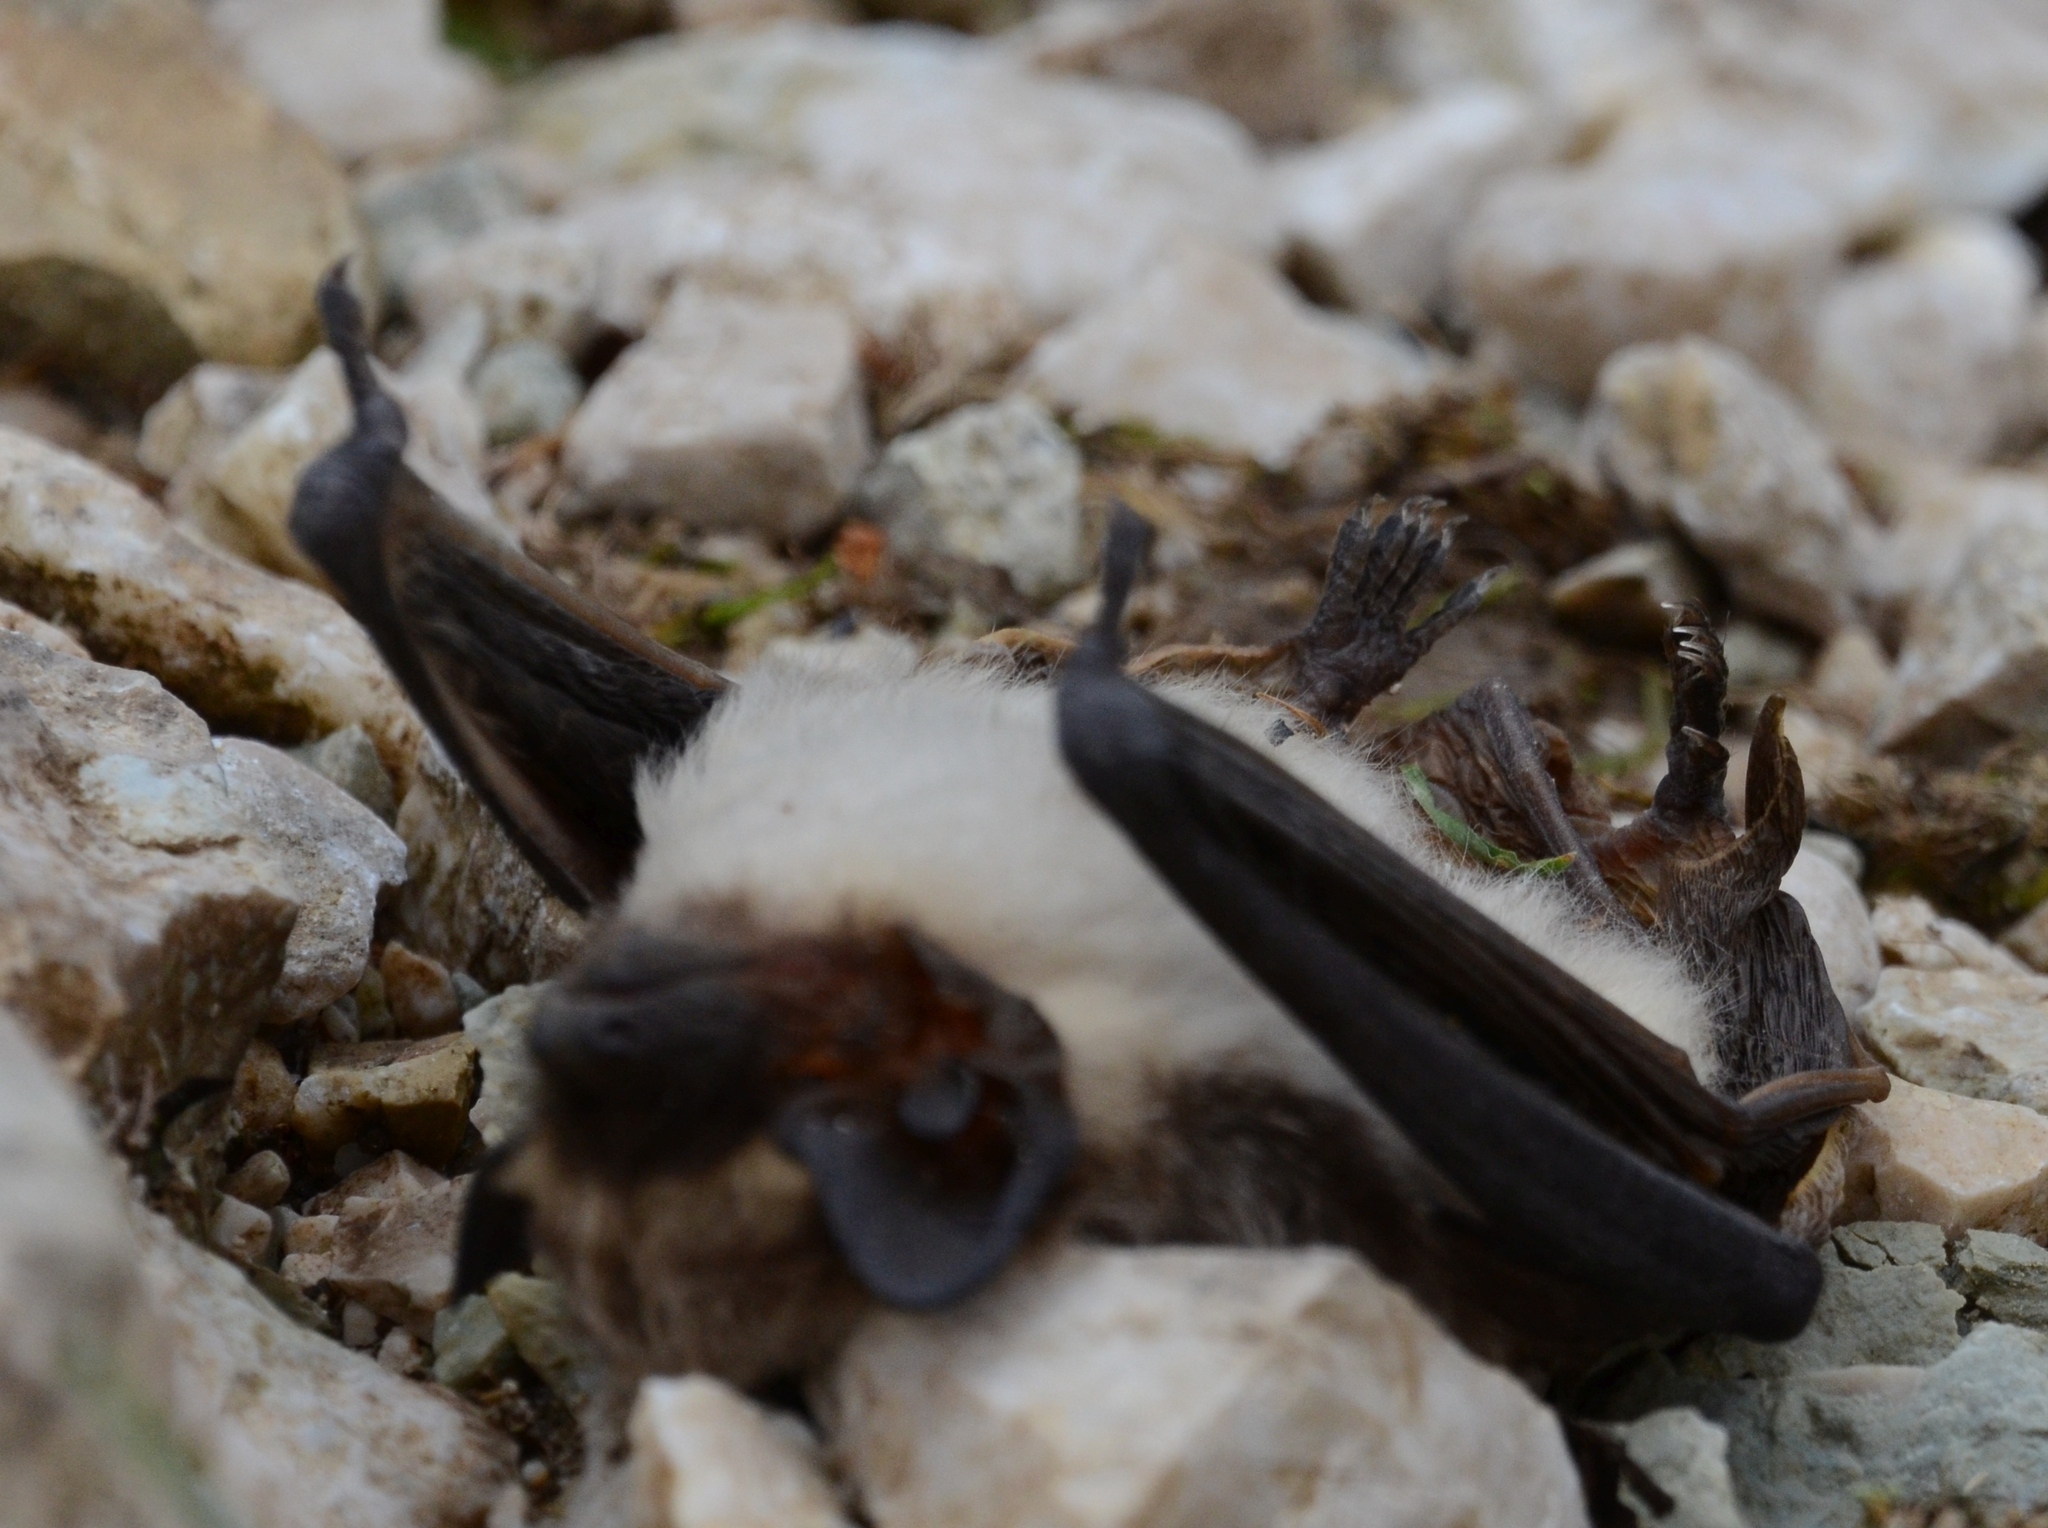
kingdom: Animalia
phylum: Chordata
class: Mammalia
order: Chiroptera
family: Vespertilionidae
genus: Vespertilio
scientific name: Vespertilio murinus
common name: Particolored bat
